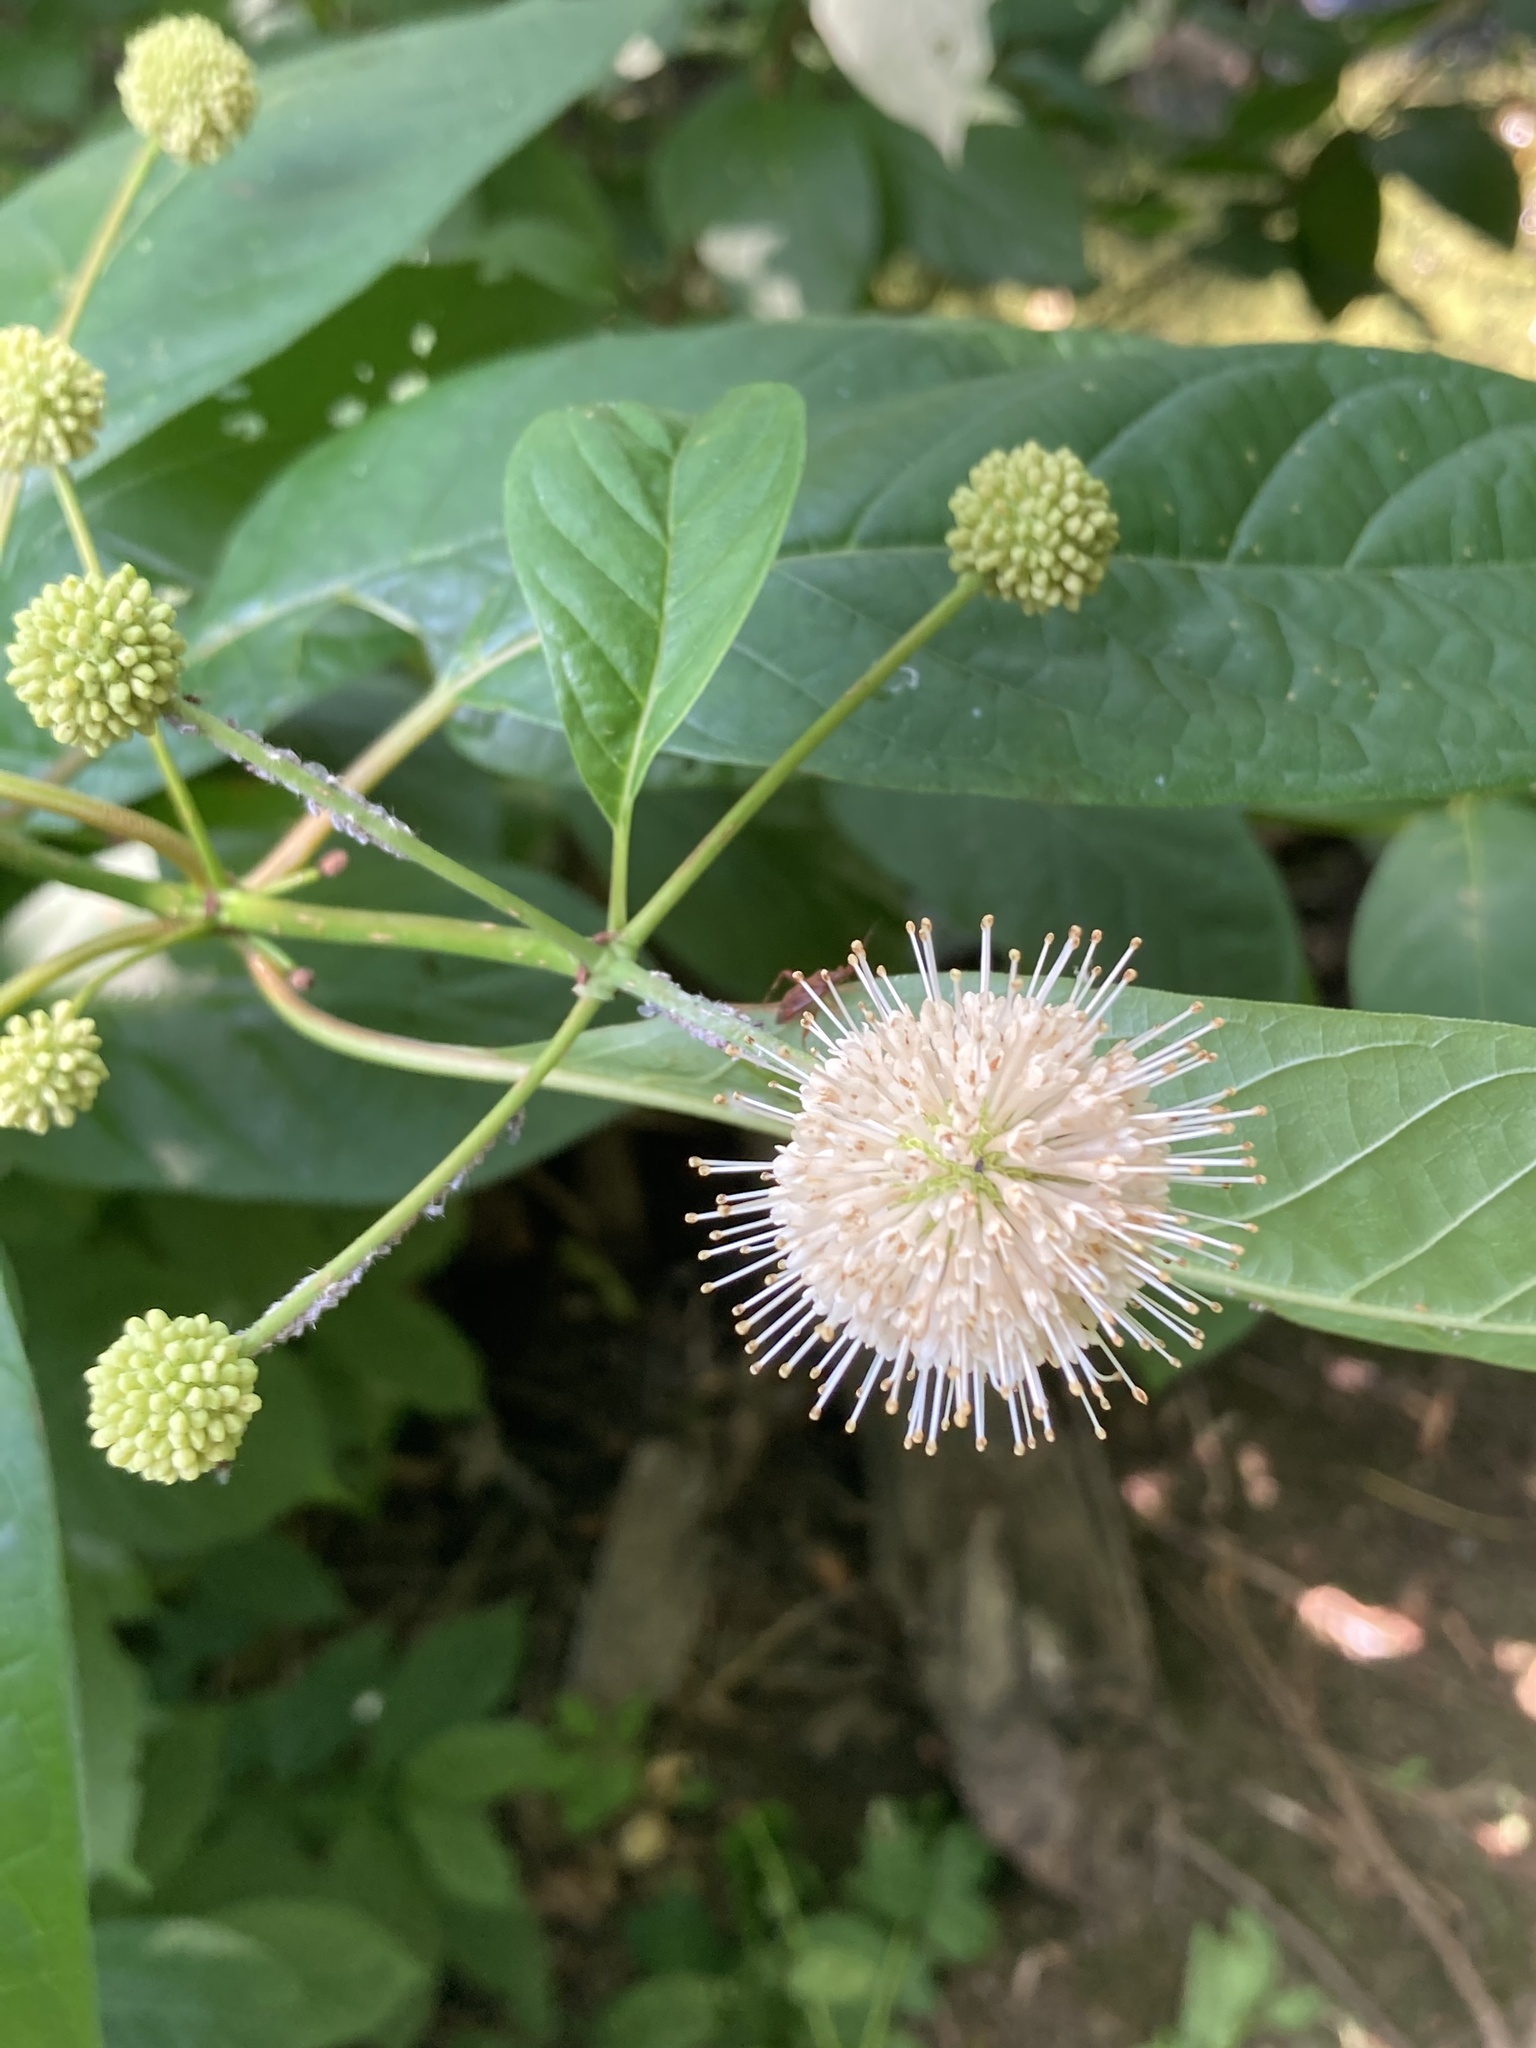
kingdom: Plantae
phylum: Tracheophyta
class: Magnoliopsida
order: Gentianales
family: Rubiaceae
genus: Cephalanthus
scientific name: Cephalanthus occidentalis
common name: Button-willow
